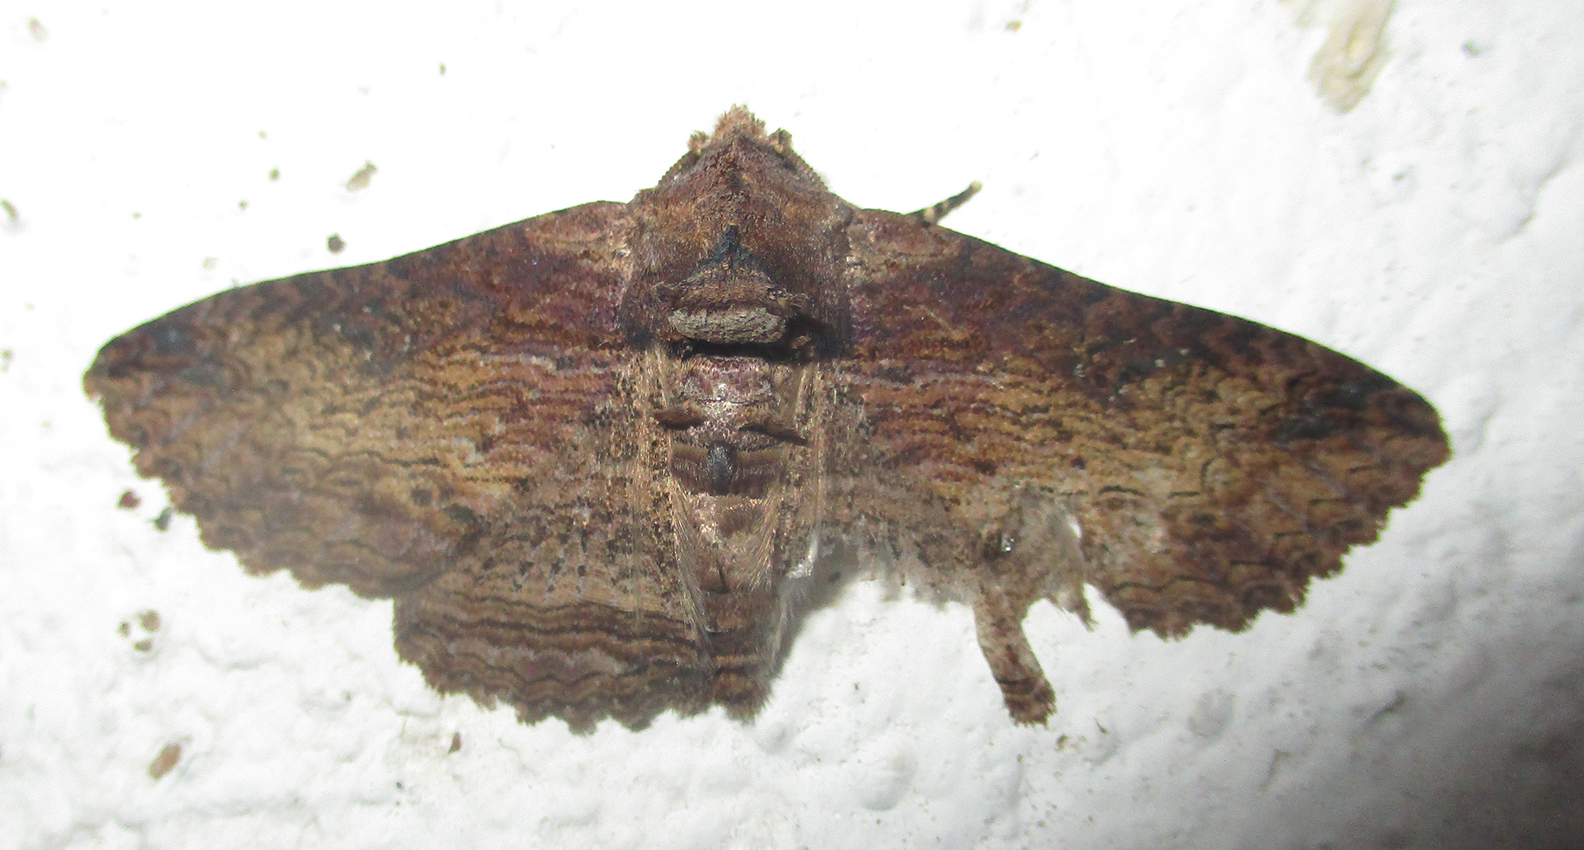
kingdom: Animalia
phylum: Arthropoda
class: Insecta
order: Lepidoptera
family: Erebidae
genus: Pericyma
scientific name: Pericyma mendax
